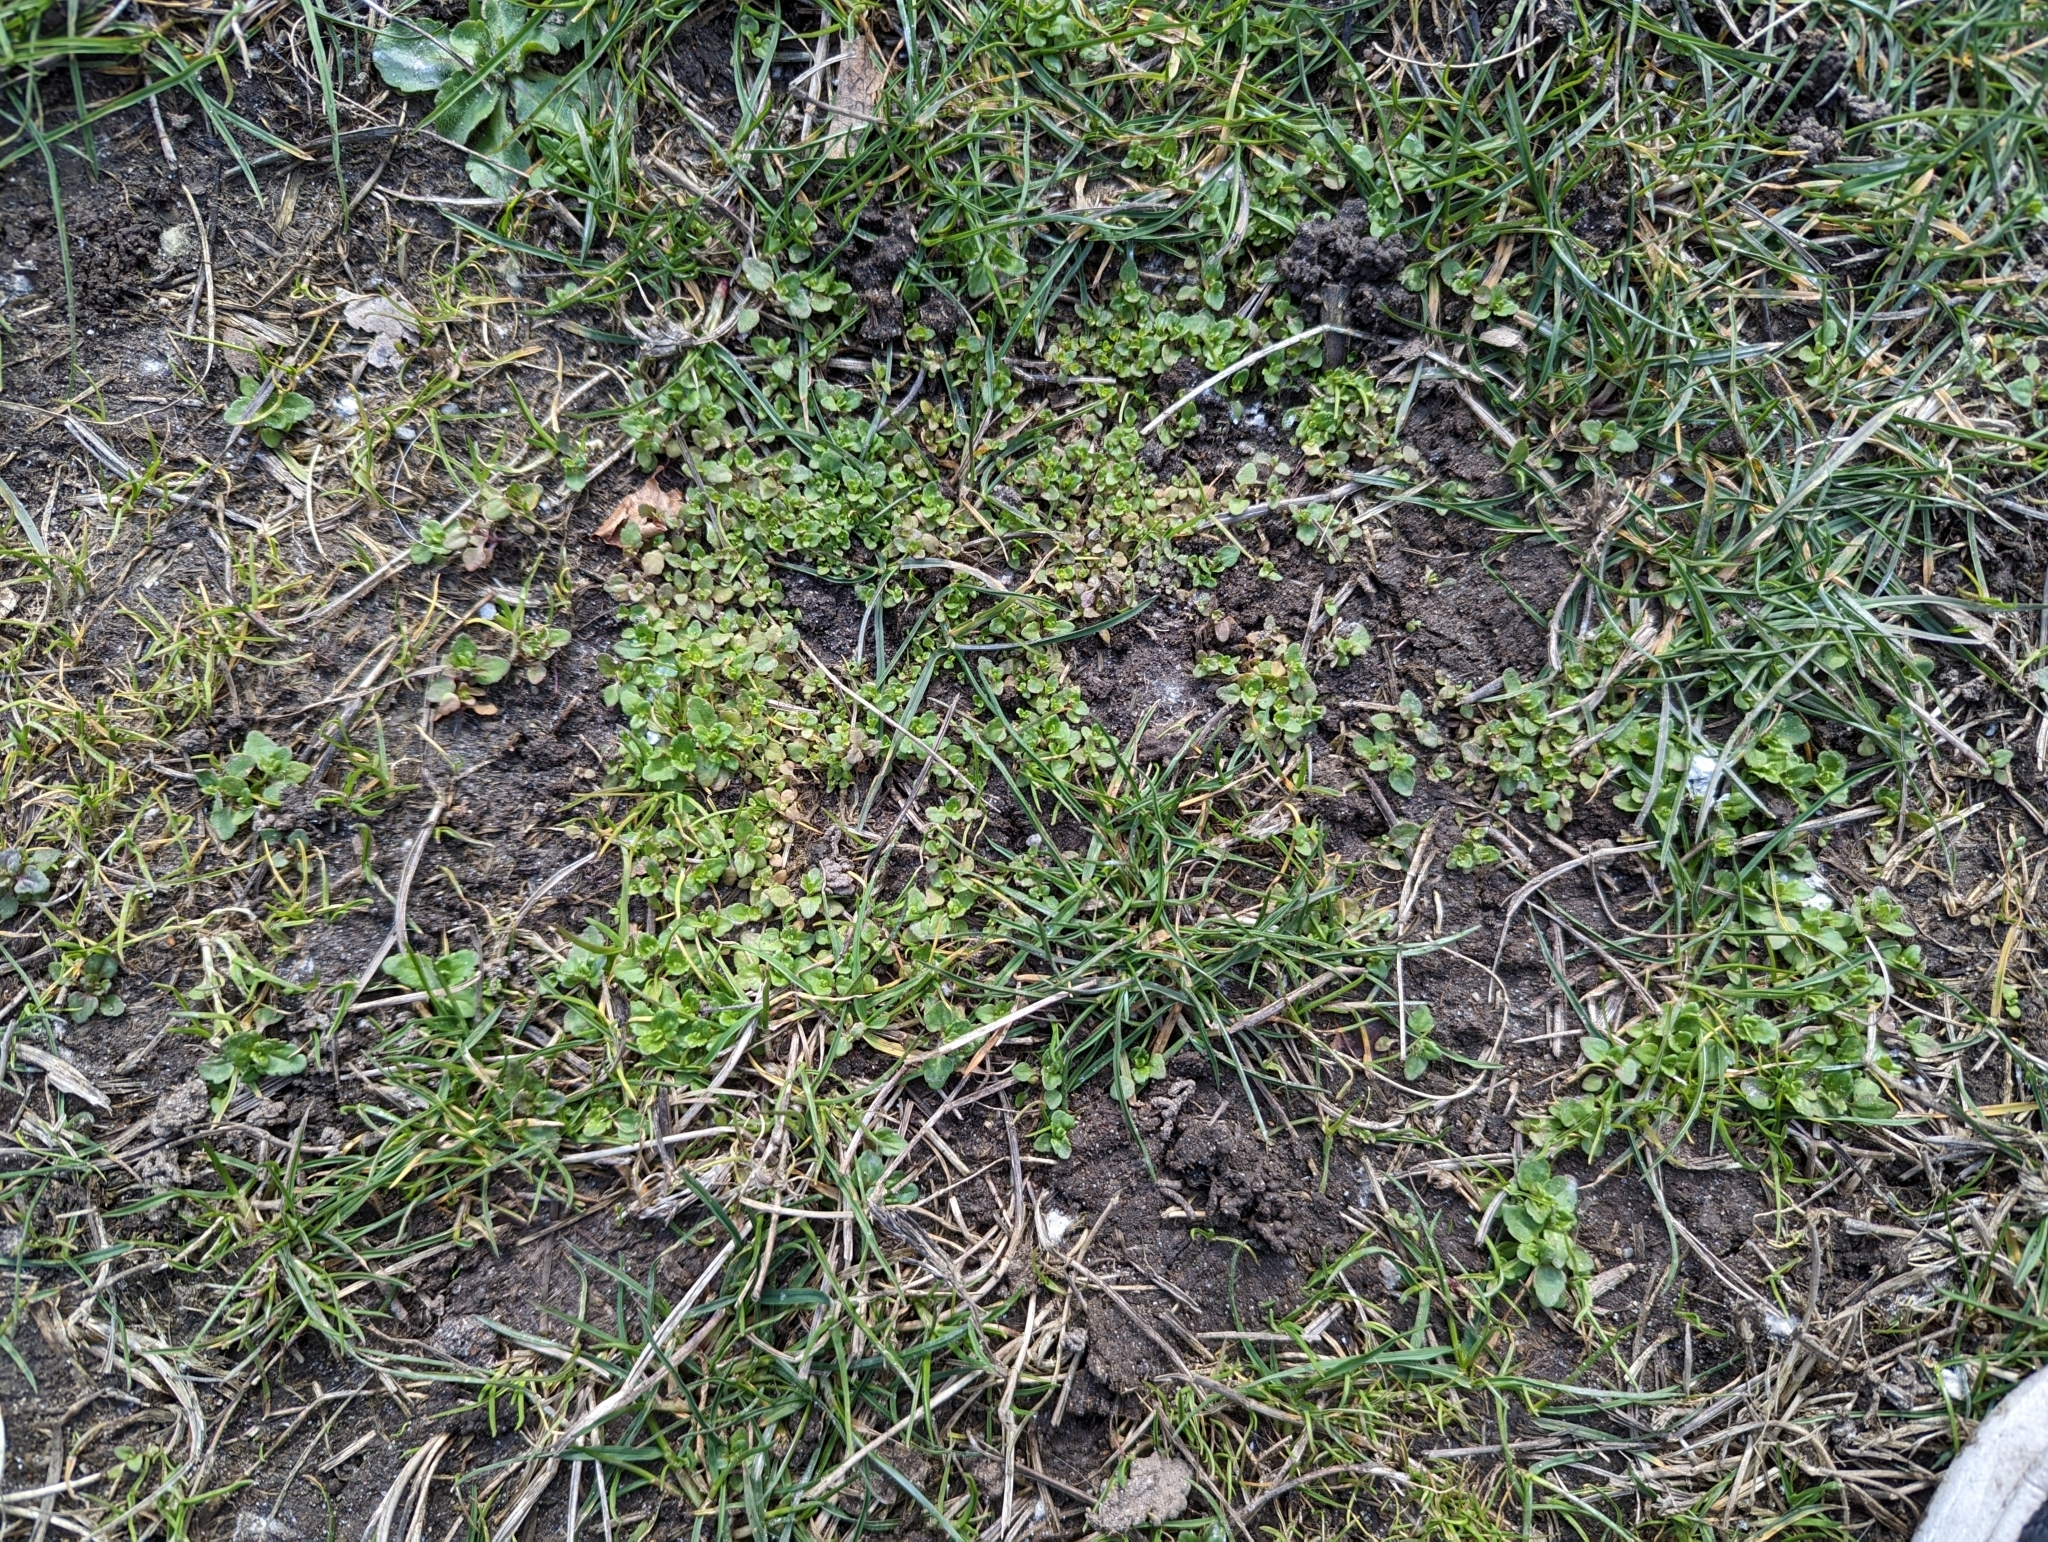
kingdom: Plantae
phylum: Tracheophyta
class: Magnoliopsida
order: Lamiales
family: Plantaginaceae
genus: Veronica
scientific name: Veronica arvensis
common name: Corn speedwell
